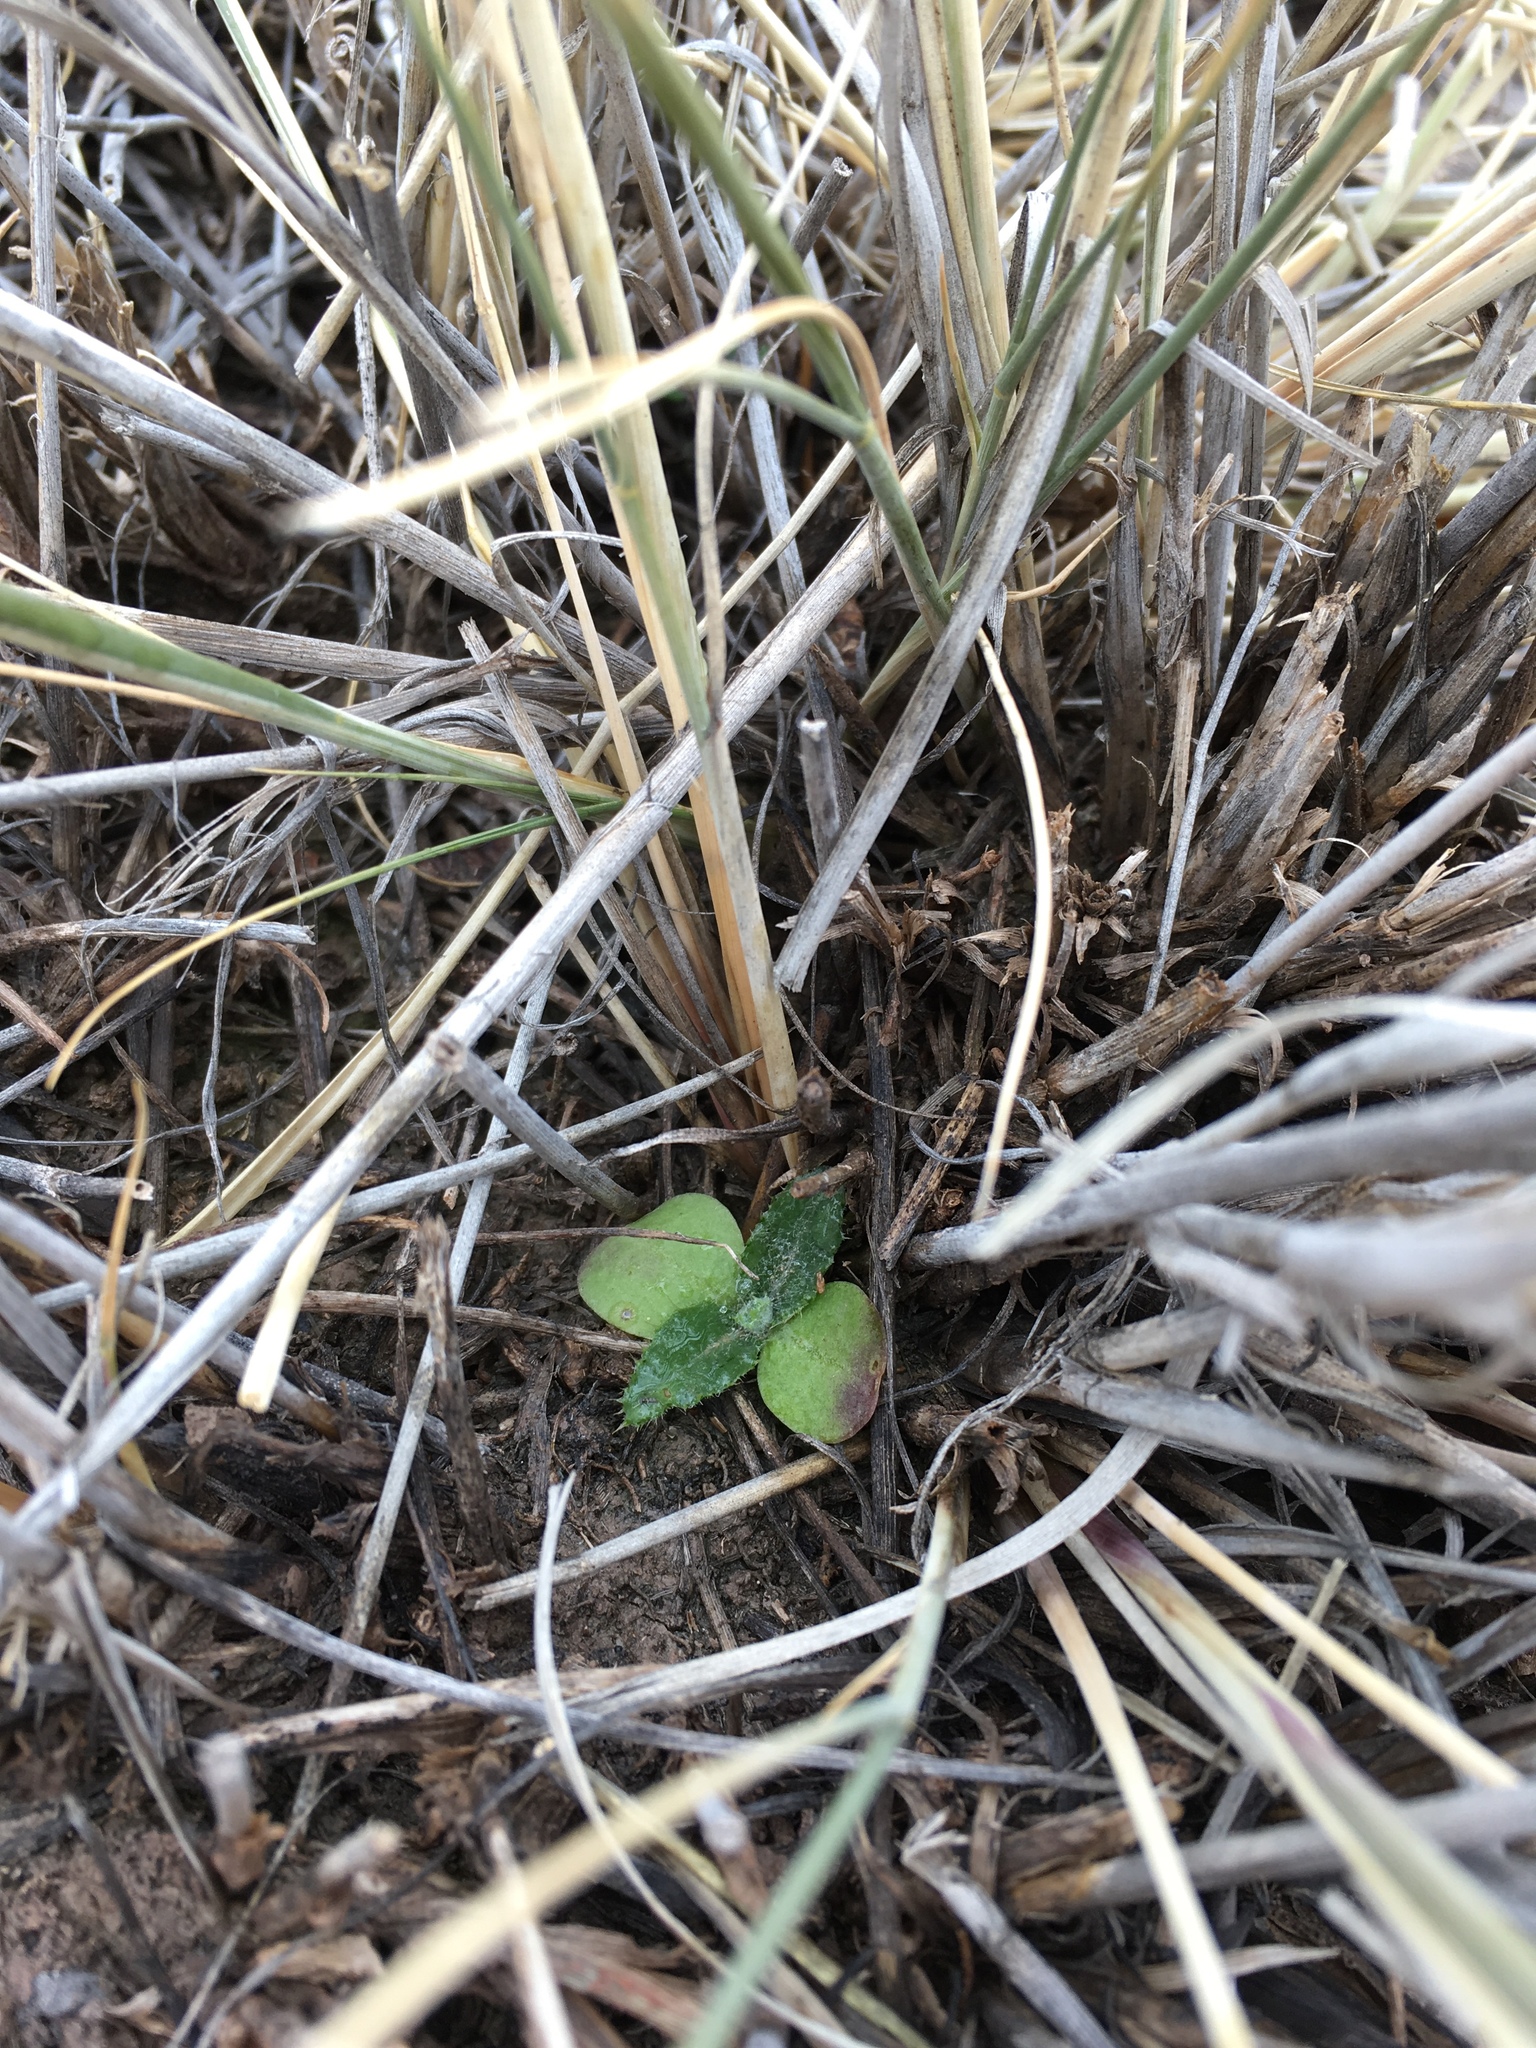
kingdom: Plantae
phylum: Tracheophyta
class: Magnoliopsida
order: Asterales
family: Asteraceae
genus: Cirsium
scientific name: Cirsium ochrocentrum
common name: Yellow-spine thistle
